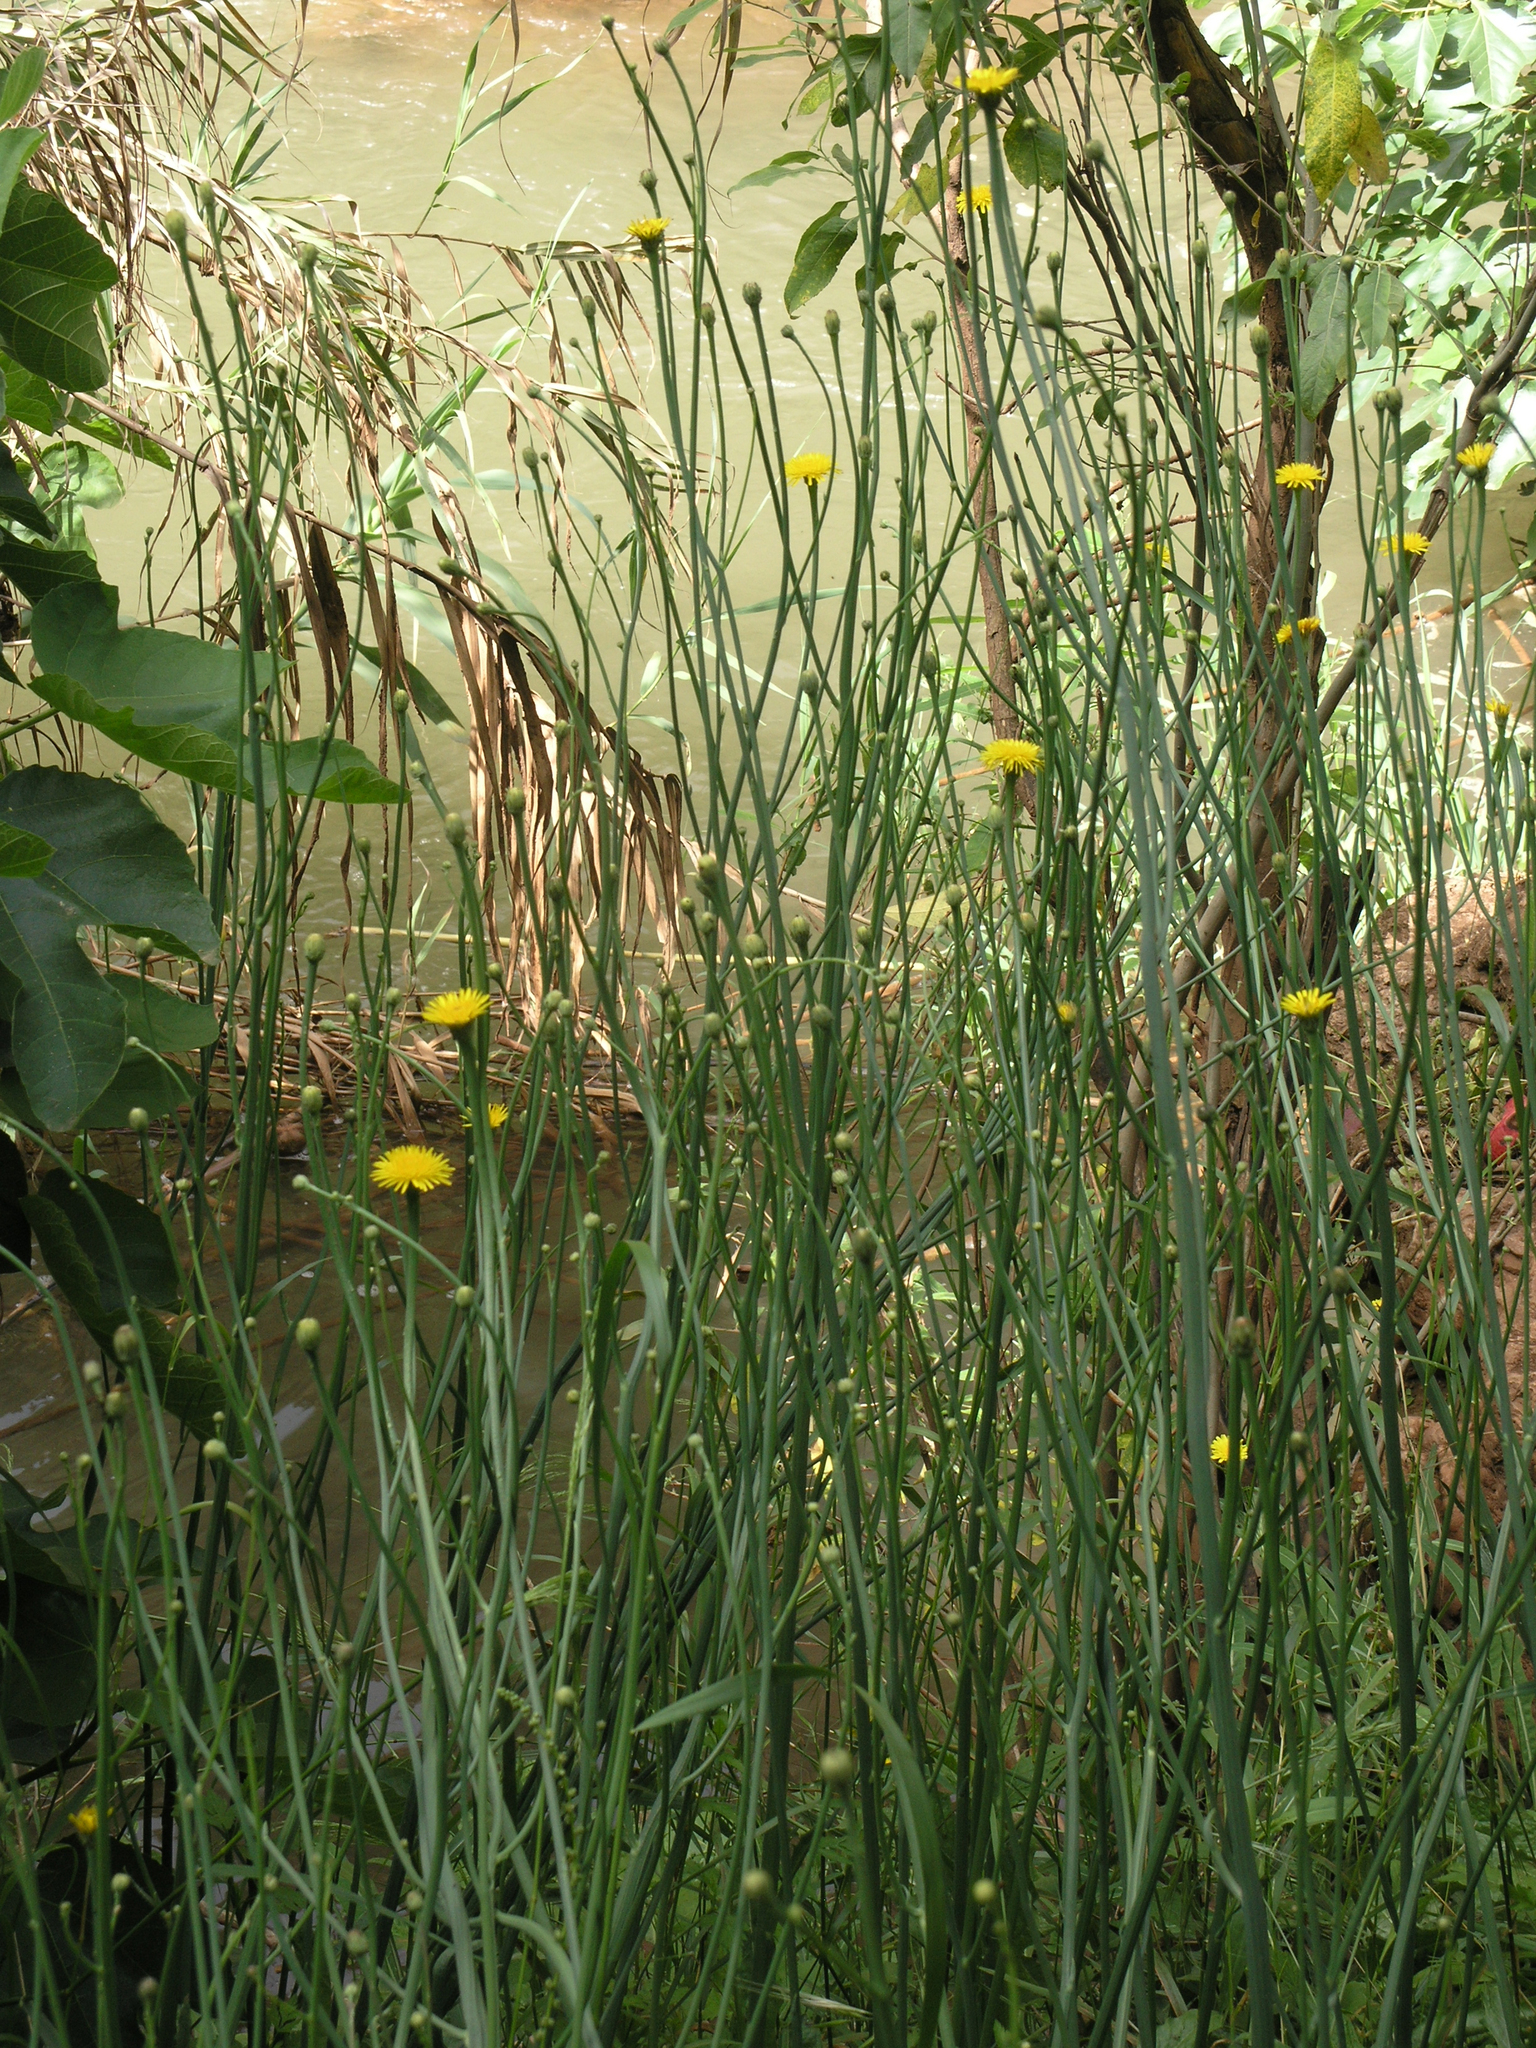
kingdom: Plantae
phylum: Tracheophyta
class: Magnoliopsida
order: Asterales
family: Asteraceae
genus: Hypochaeris
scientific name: Hypochaeris radicata
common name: Flatweed
